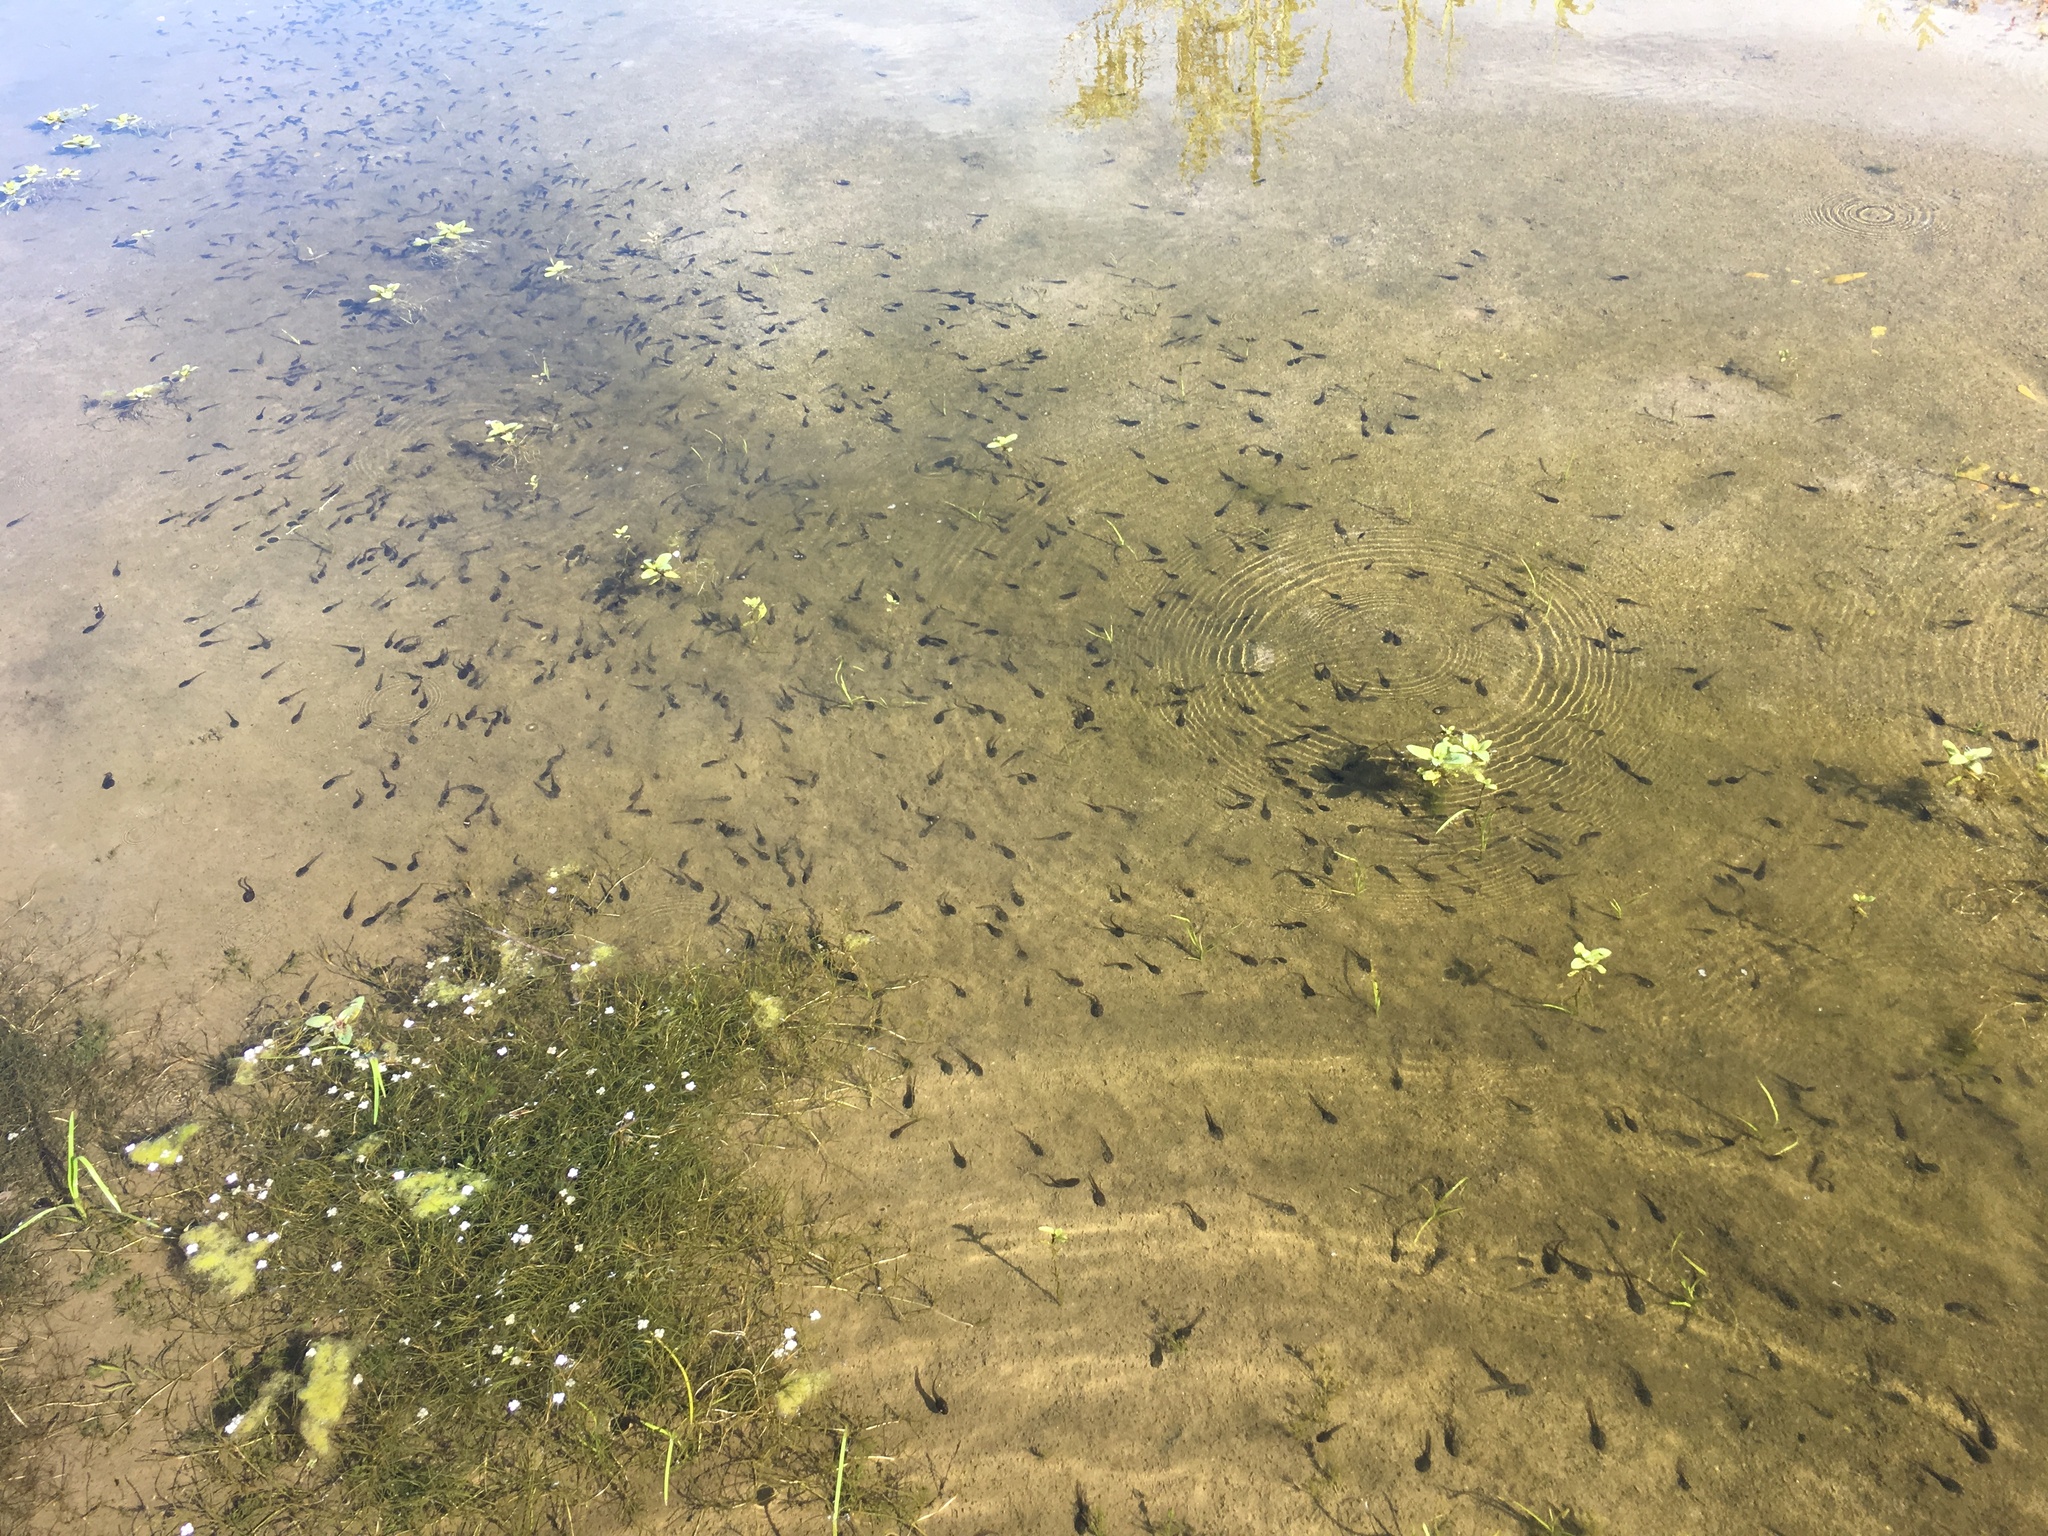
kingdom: Animalia
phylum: Chordata
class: Amphibia
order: Anura
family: Bufonidae
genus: Anaxyrus
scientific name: Anaxyrus boreas
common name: Western toad
